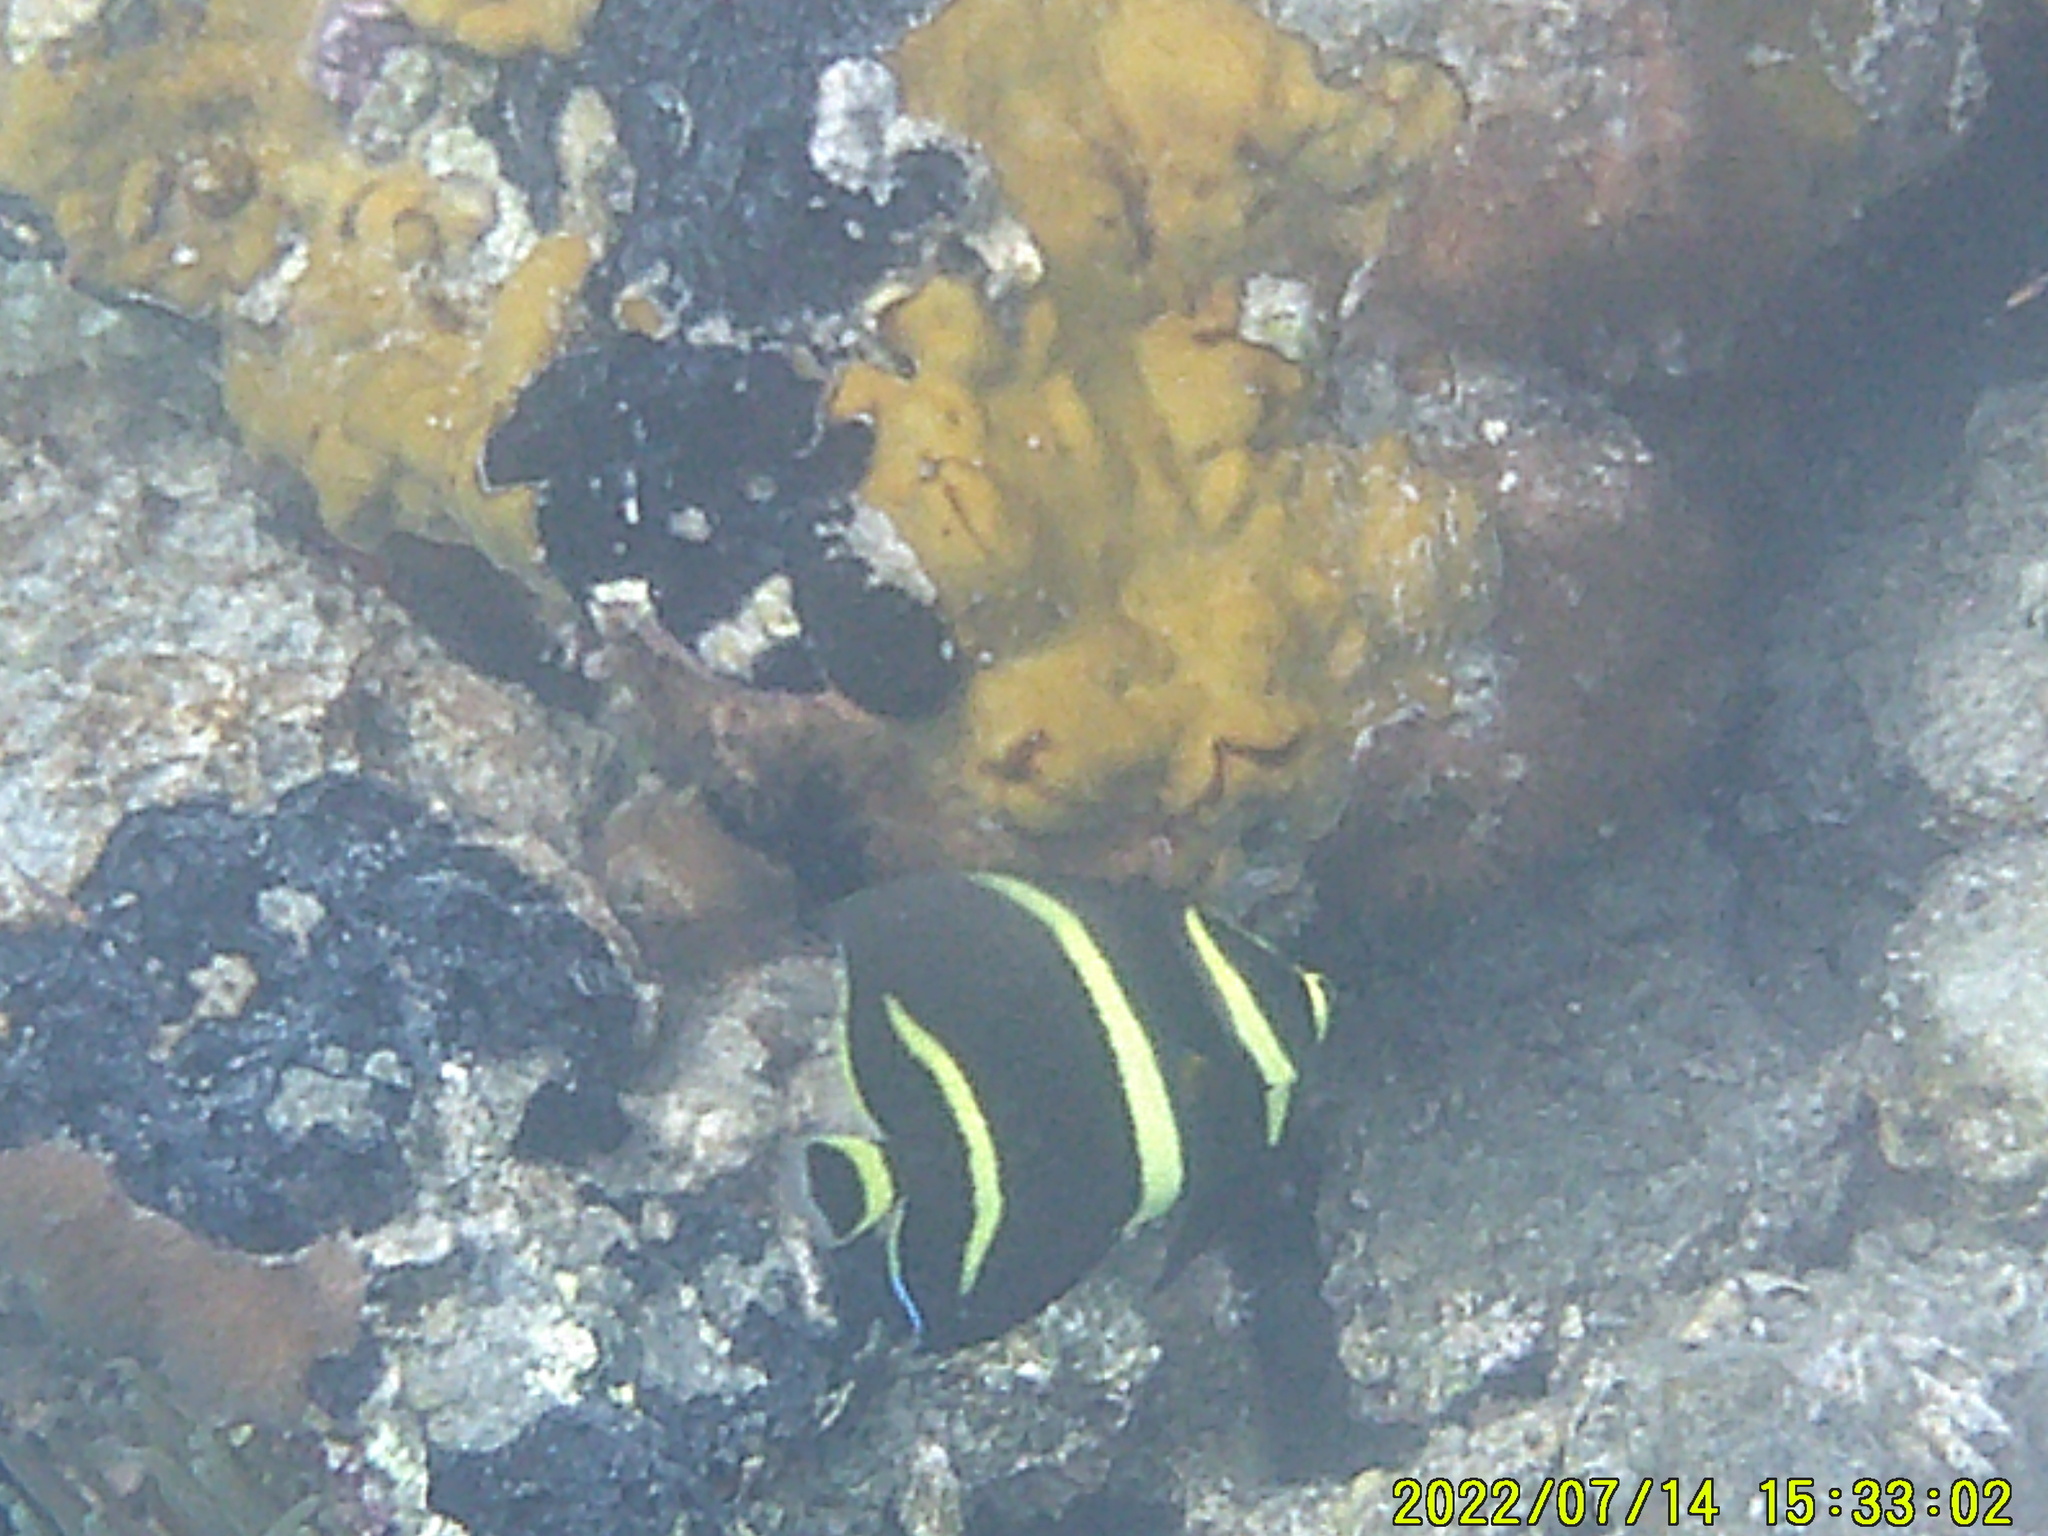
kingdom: Animalia
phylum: Chordata
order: Perciformes
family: Pomacanthidae
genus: Pomacanthus
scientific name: Pomacanthus arcuatus
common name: Gray angelfish
